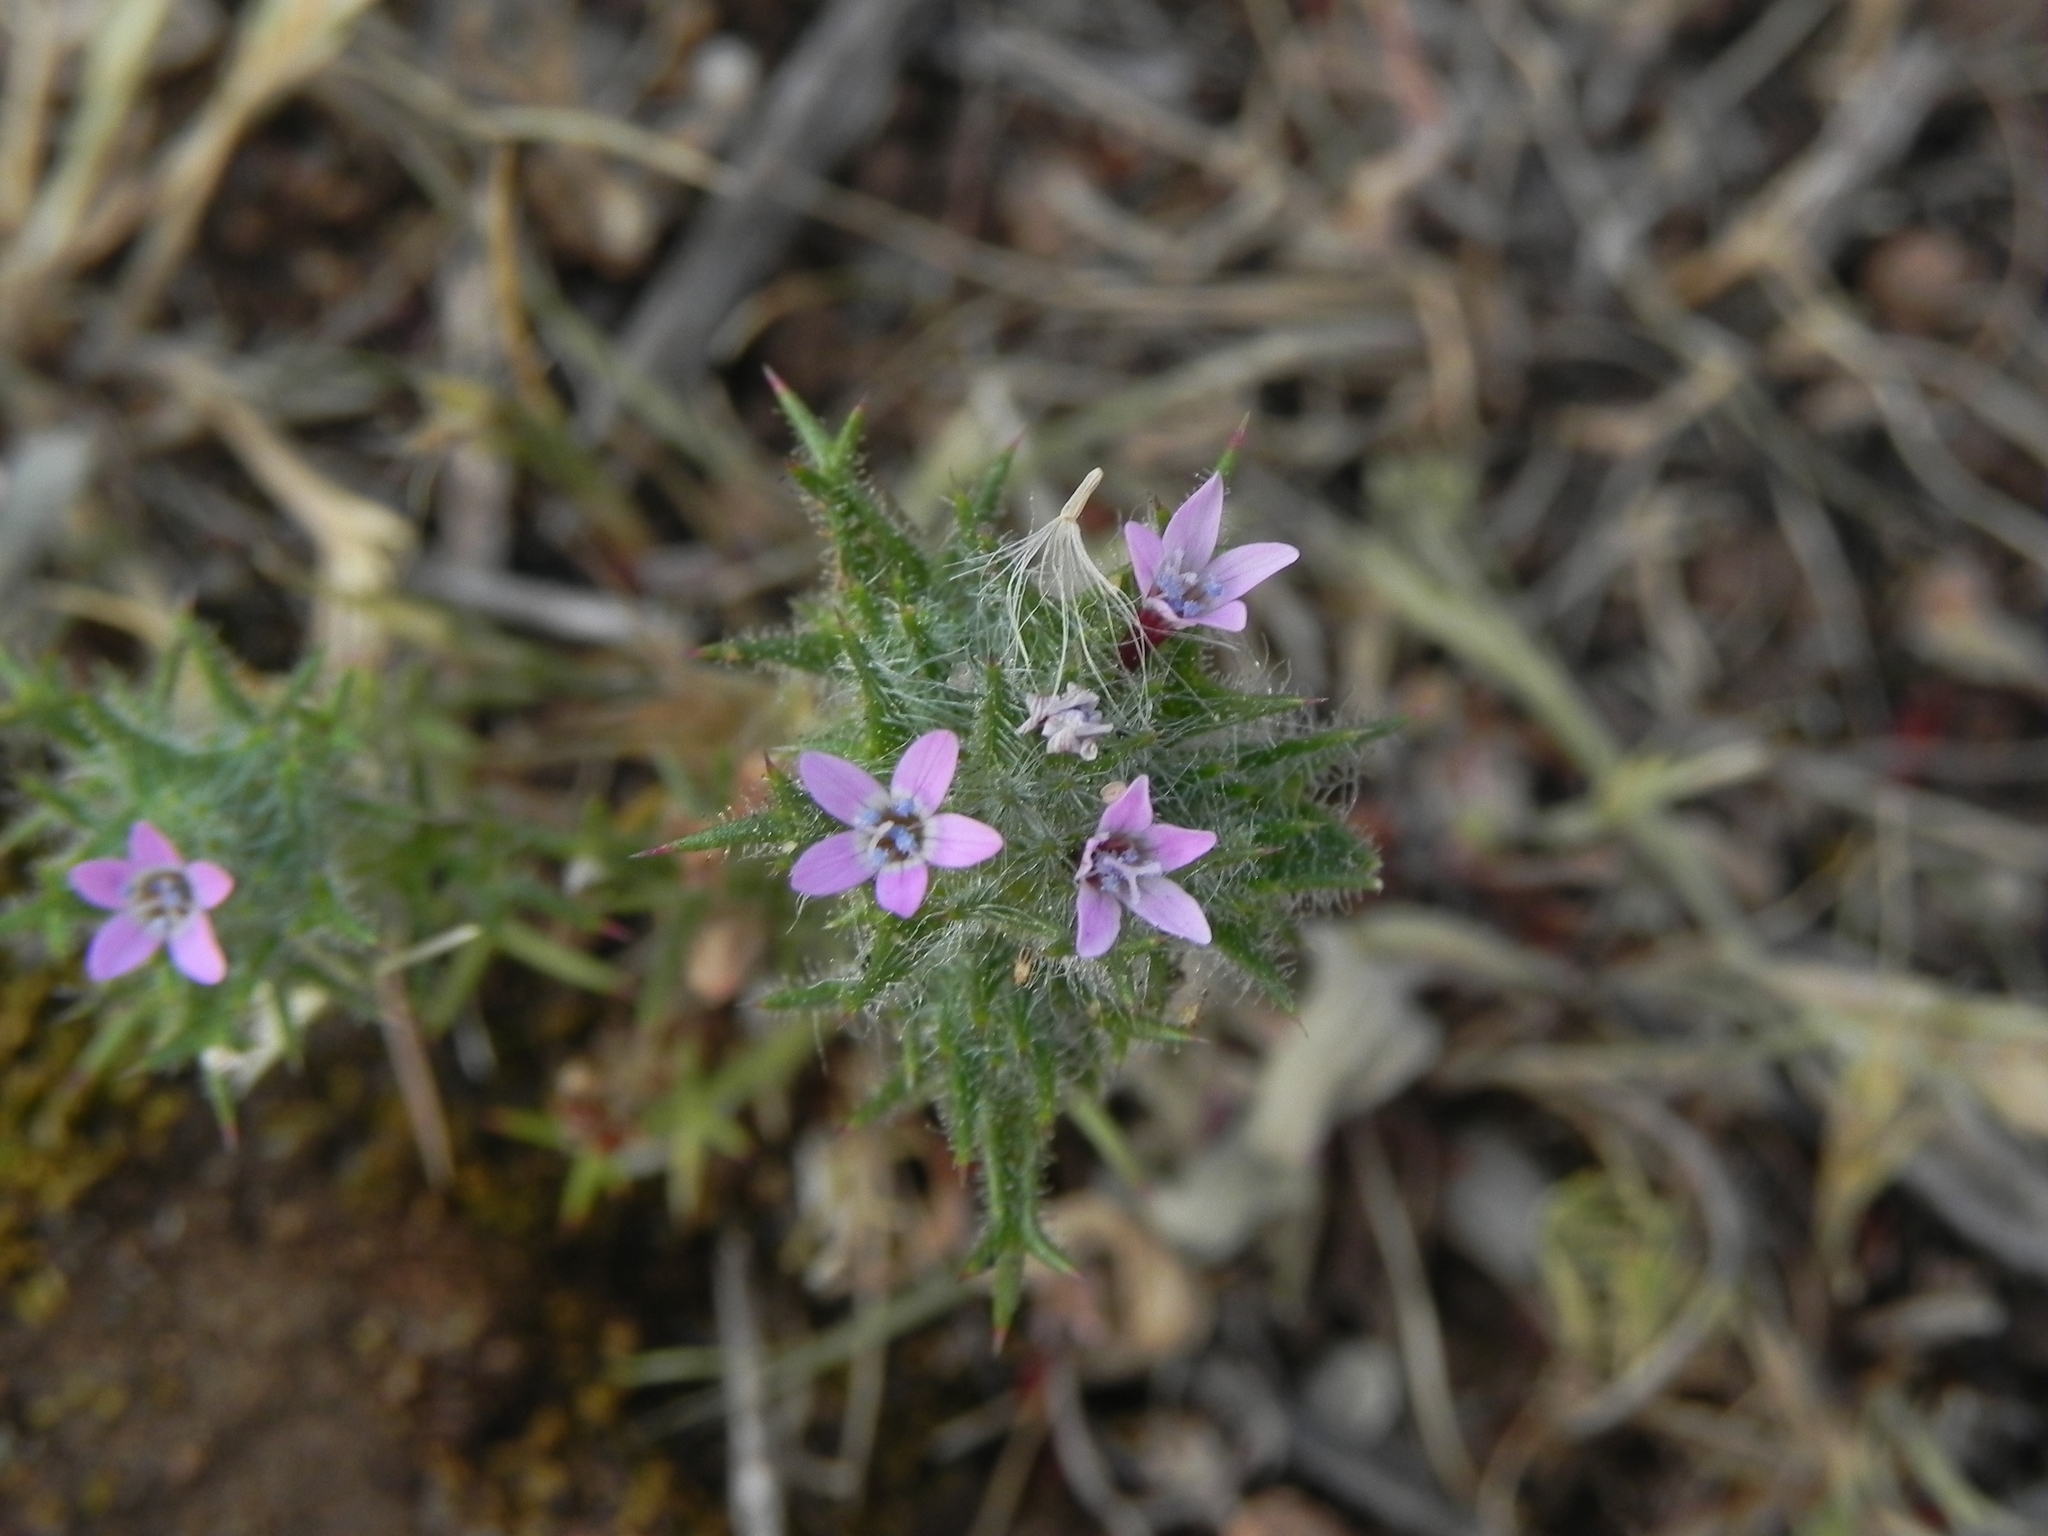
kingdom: Plantae
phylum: Tracheophyta
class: Magnoliopsida
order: Ericales
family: Polemoniaceae
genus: Navarretia
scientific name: Navarretia hamata
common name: Hooked navarretia
